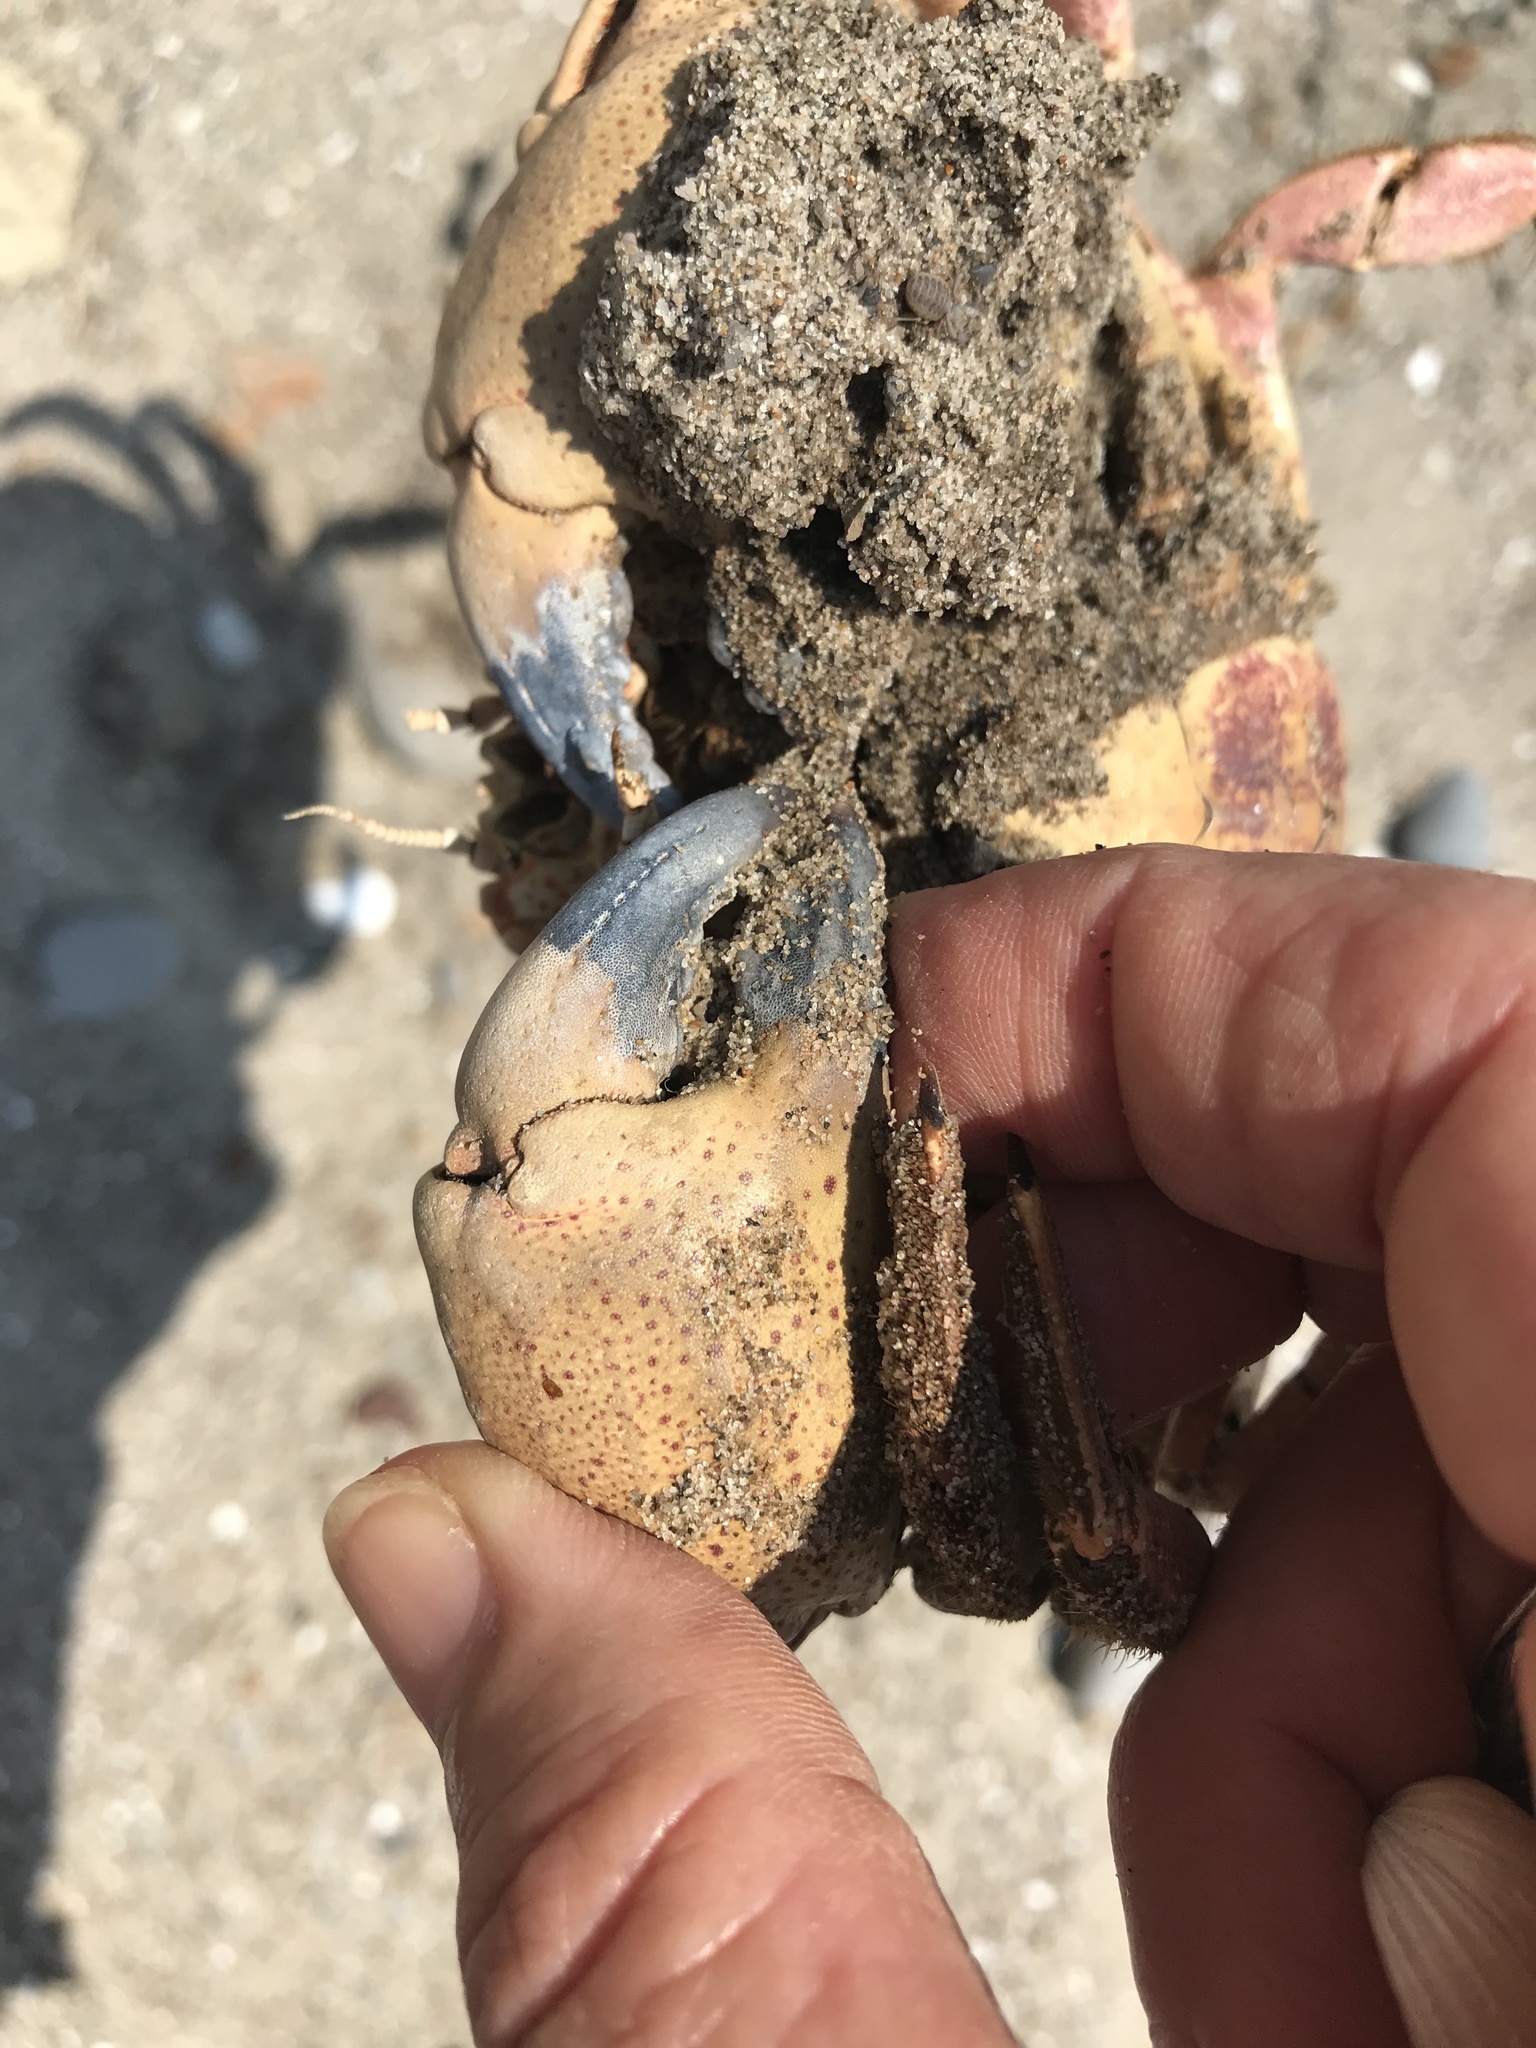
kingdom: Animalia
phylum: Arthropoda
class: Malacostraca
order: Decapoda
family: Cancridae
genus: Romaleon
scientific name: Romaleon antennarium
